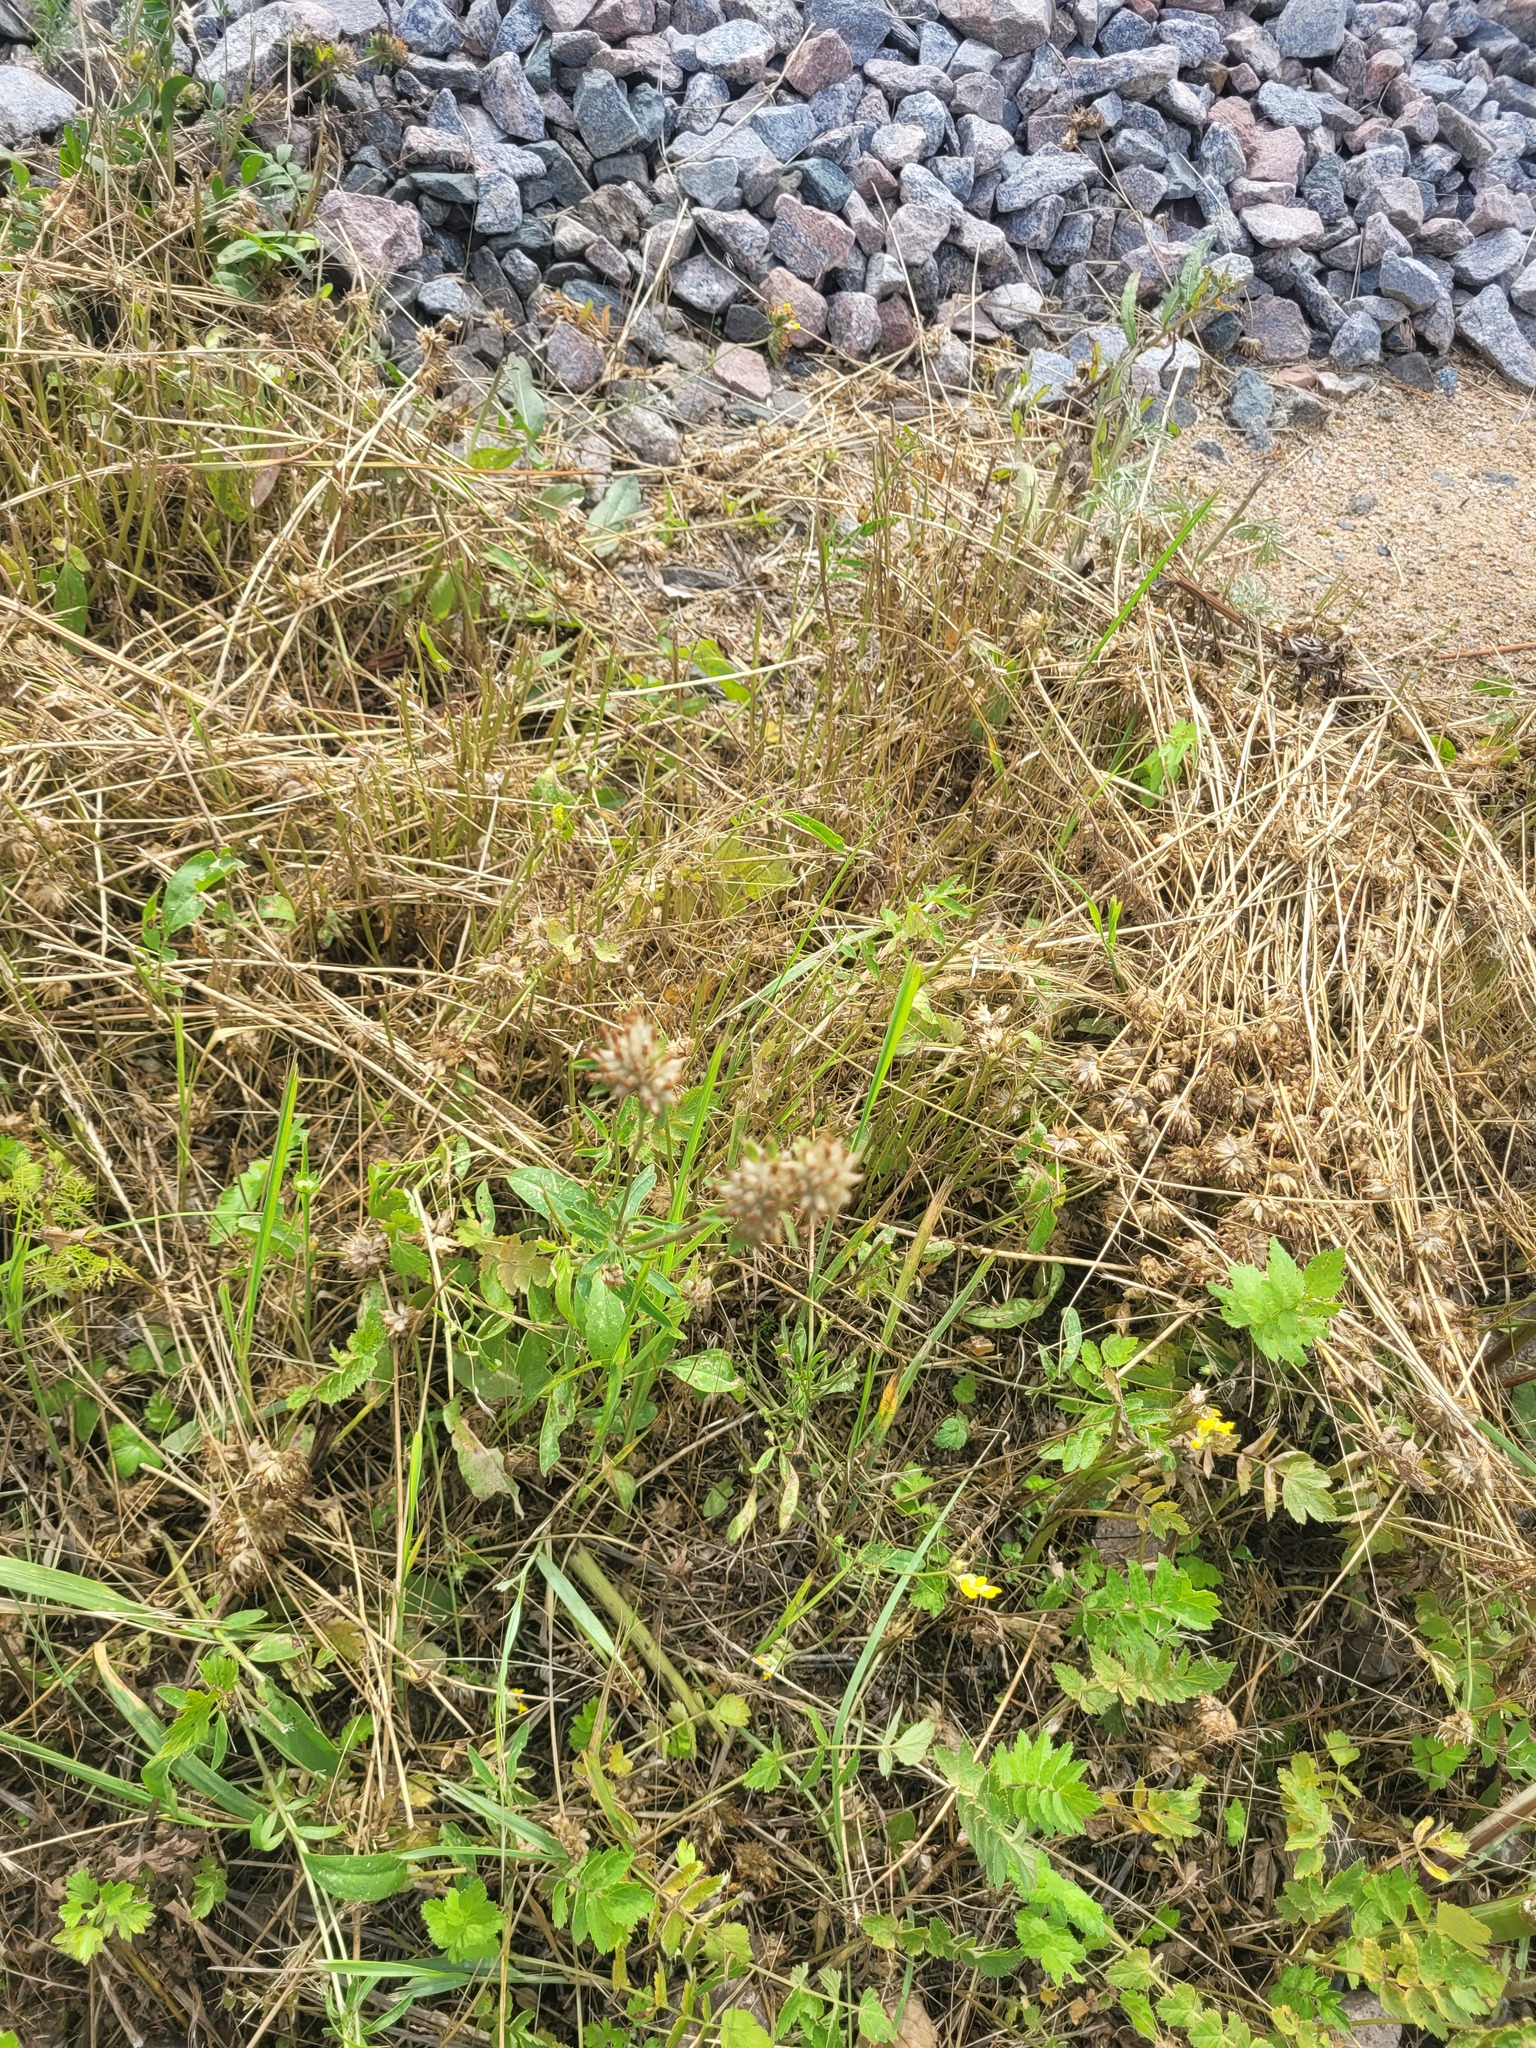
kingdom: Plantae
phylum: Tracheophyta
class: Magnoliopsida
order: Fabales
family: Fabaceae
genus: Anthyllis
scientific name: Anthyllis vulneraria
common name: Kidney vetch
